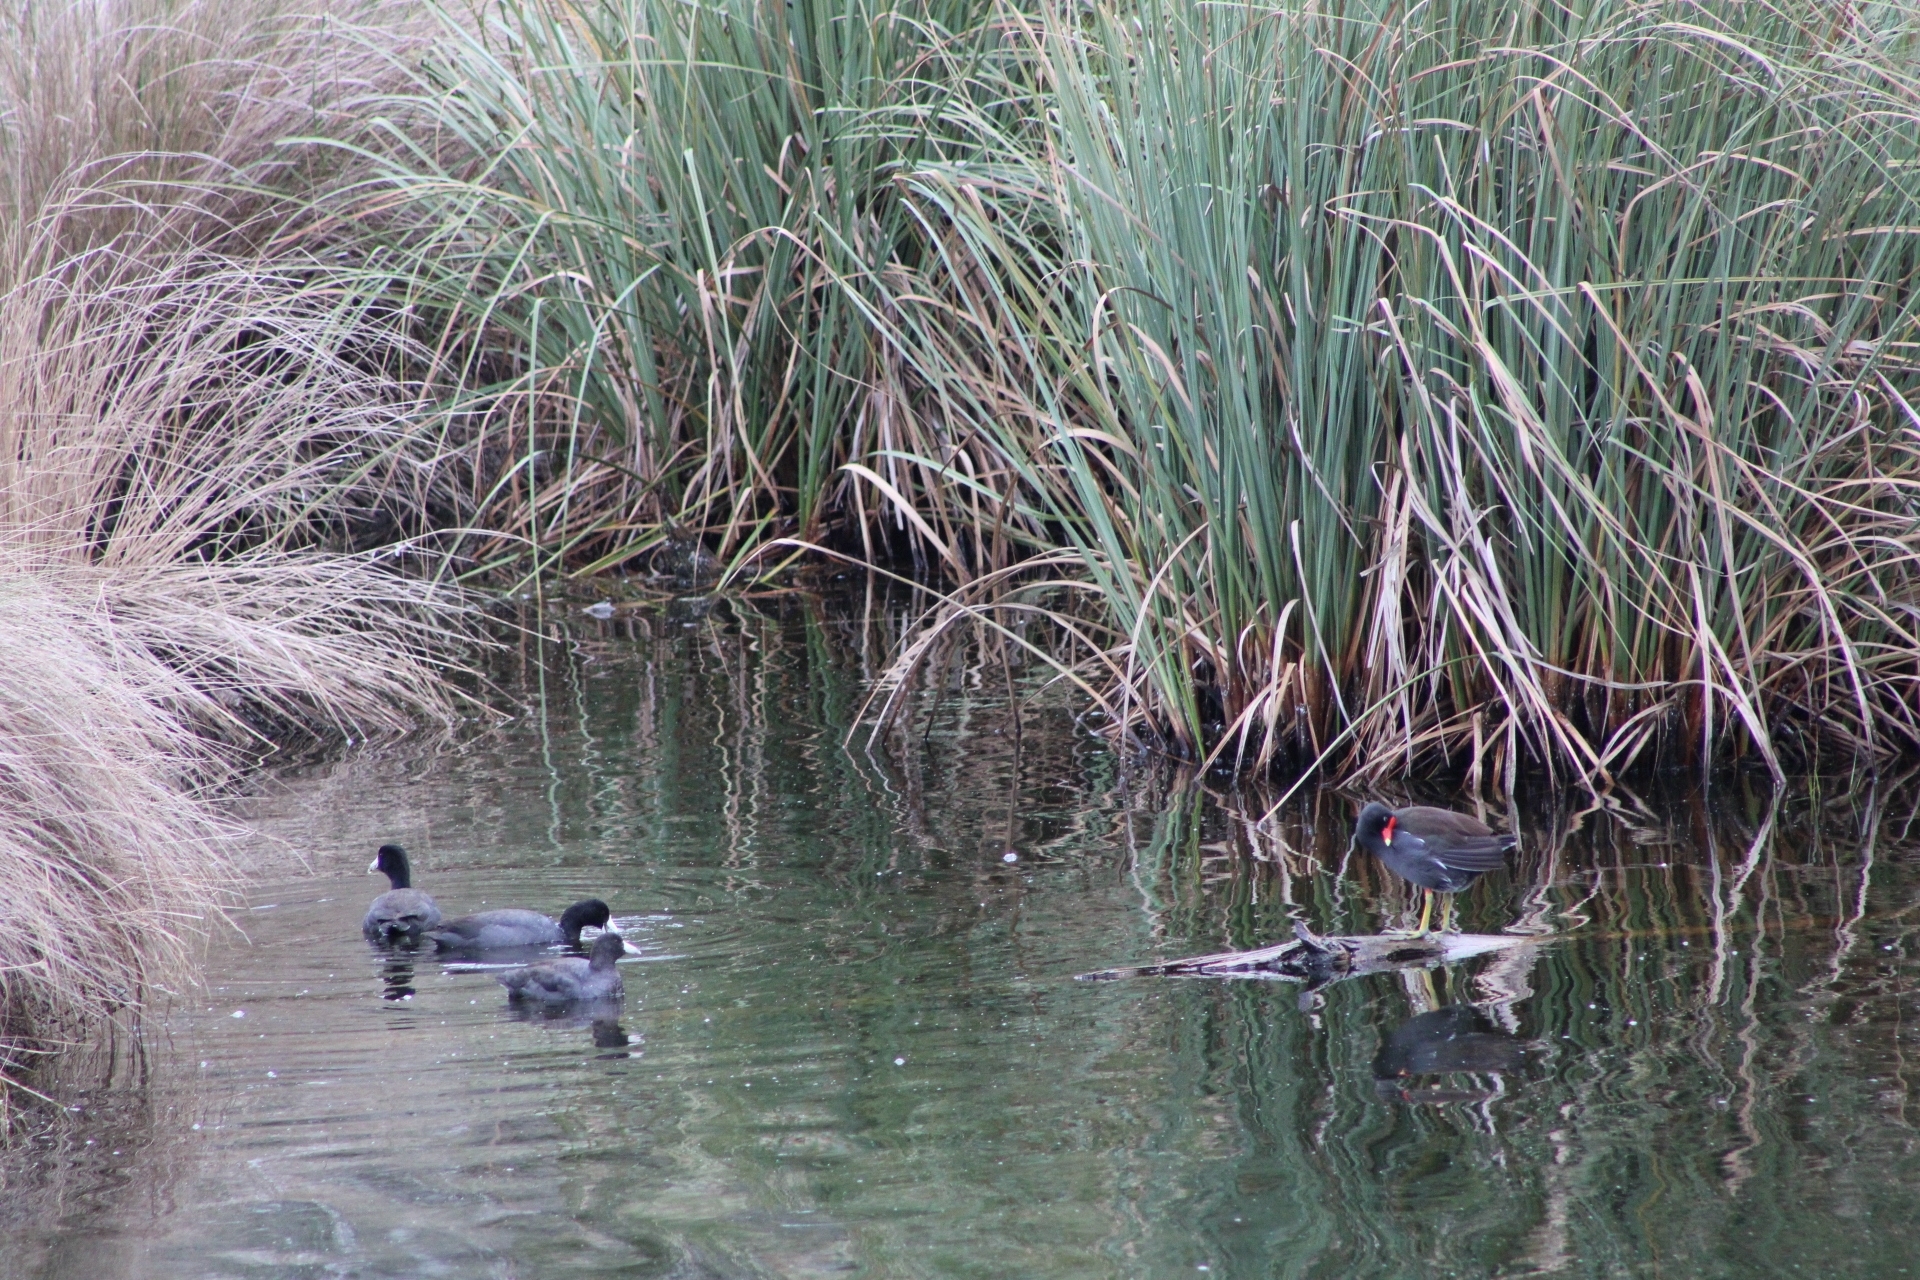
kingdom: Animalia
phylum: Chordata
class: Aves
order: Gruiformes
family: Rallidae
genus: Fulica
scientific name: Fulica americana
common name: American coot
